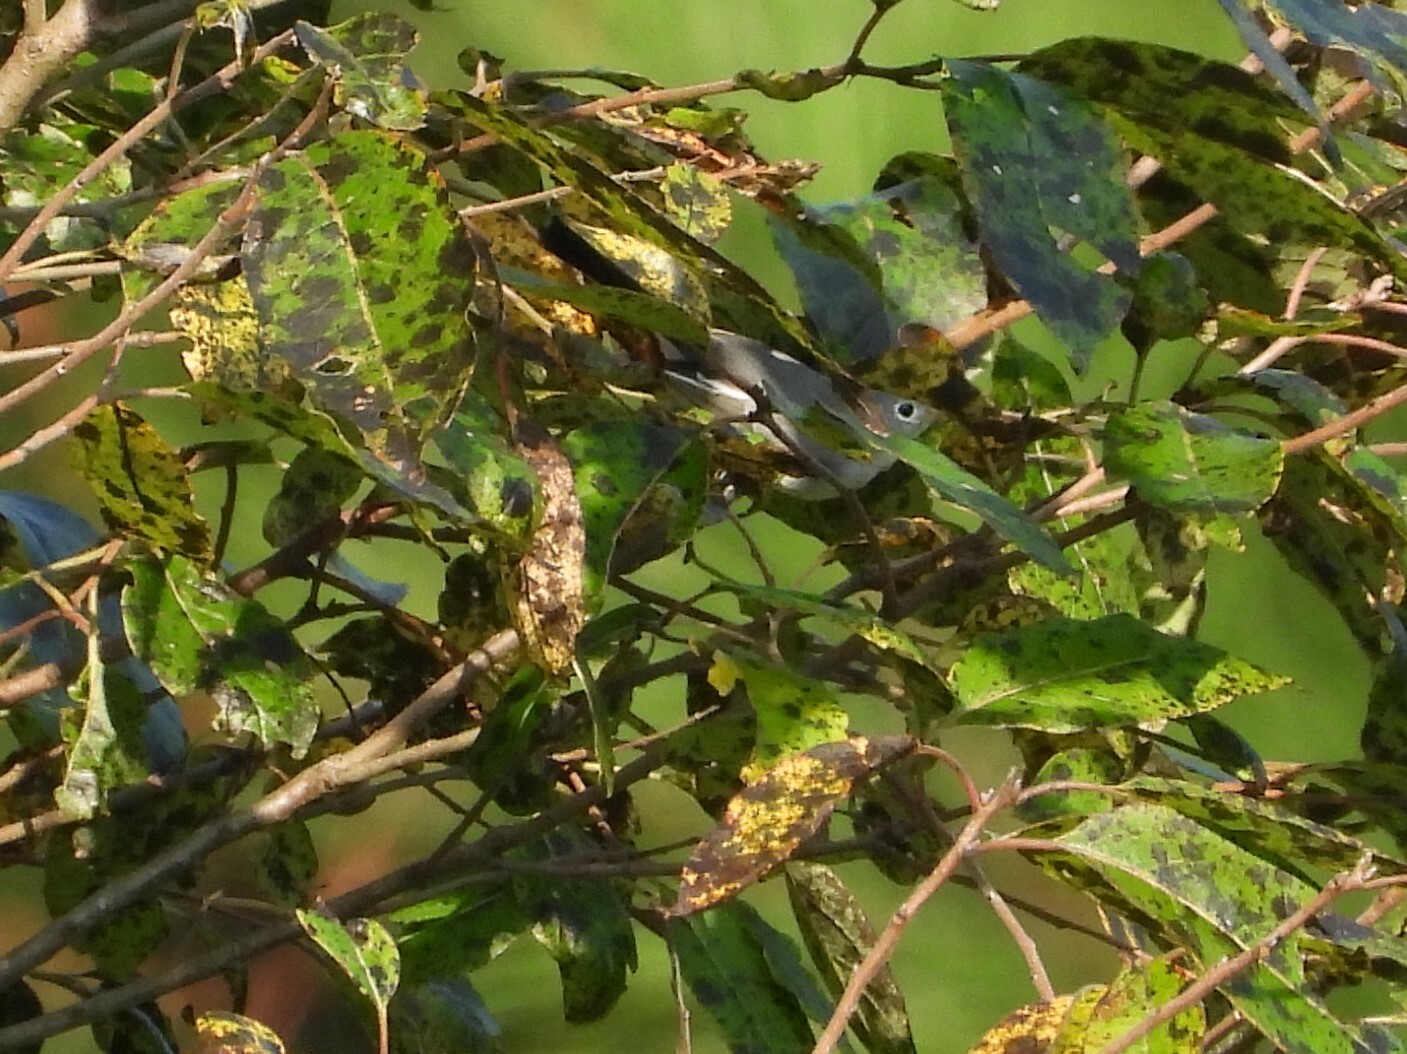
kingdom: Animalia
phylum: Chordata
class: Aves
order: Passeriformes
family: Polioptilidae
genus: Polioptila
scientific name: Polioptila caerulea
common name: Blue-gray gnatcatcher
